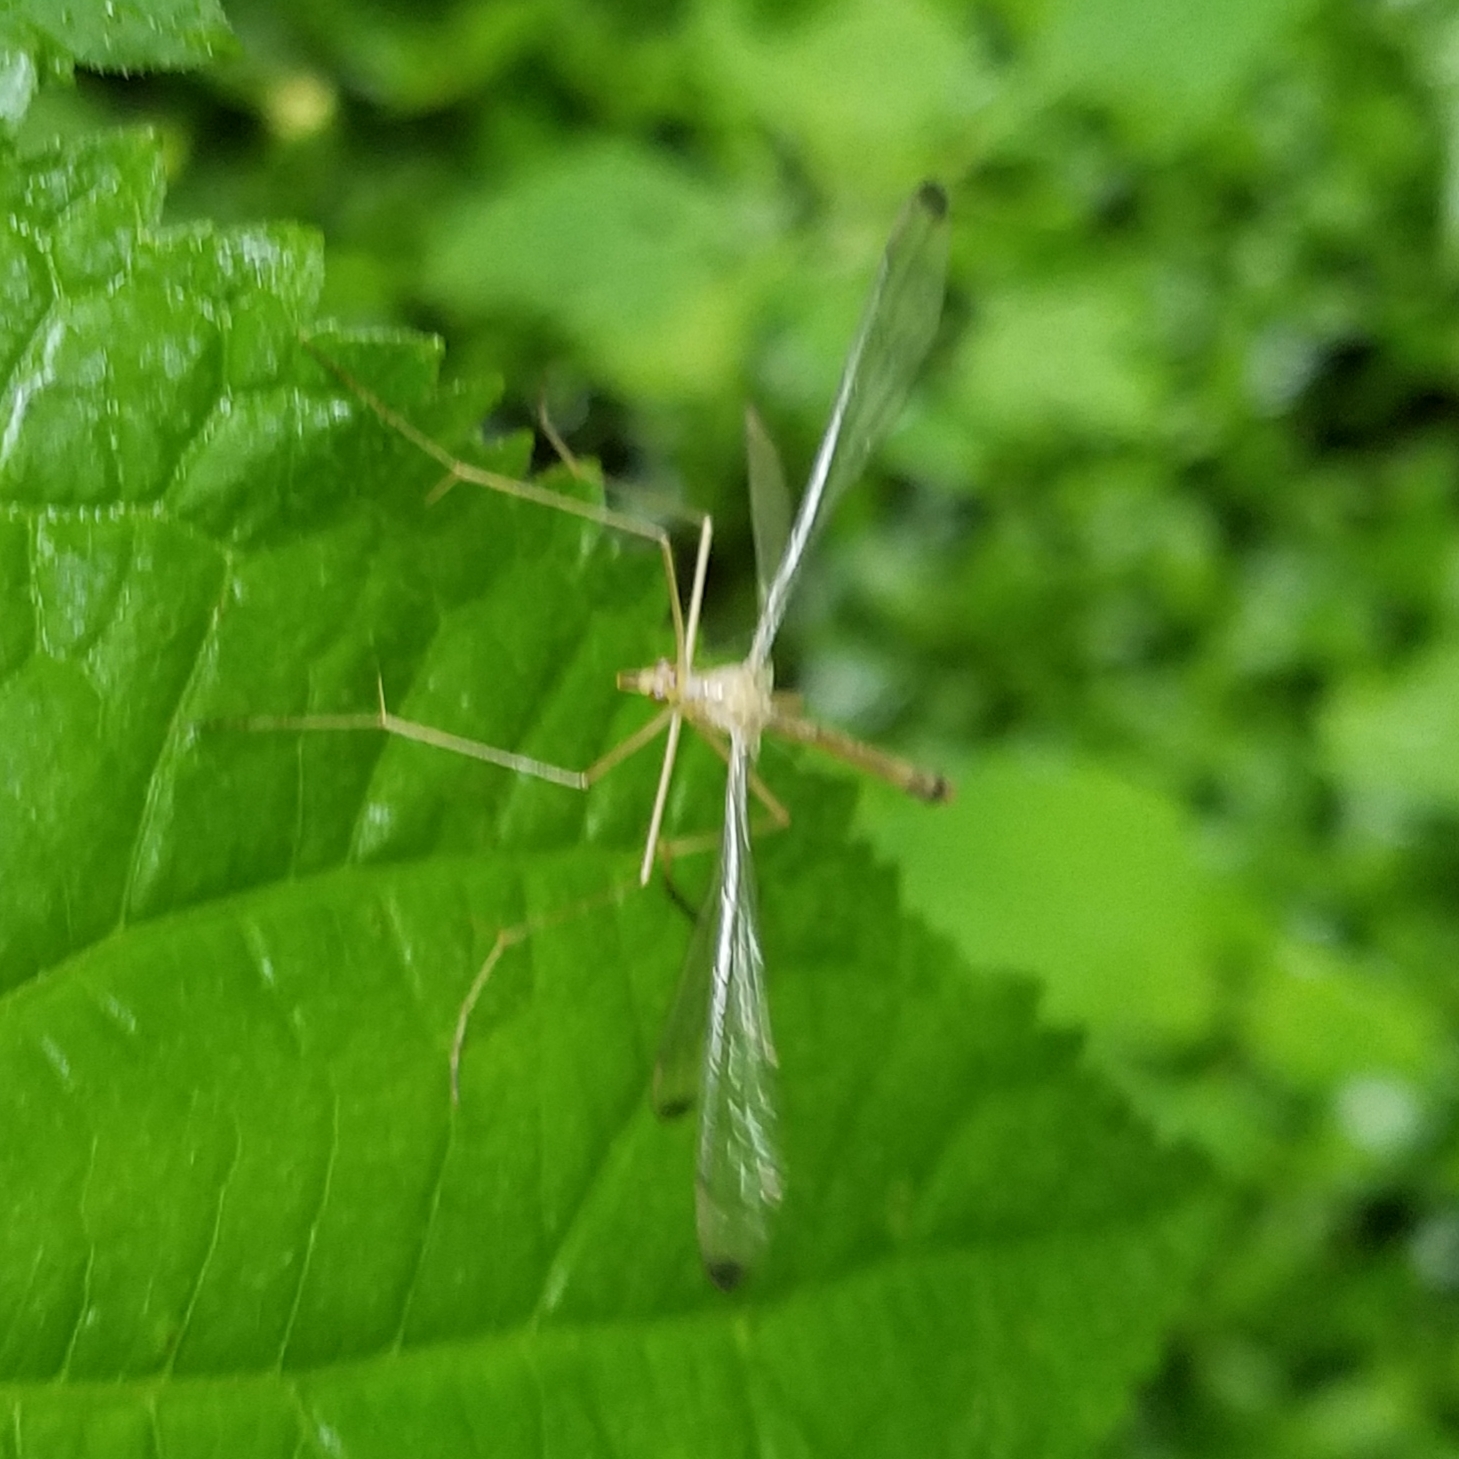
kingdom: Animalia
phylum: Arthropoda
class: Insecta
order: Mecoptera
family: Bittacidae
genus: Hylobittacus
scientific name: Hylobittacus apicalis
